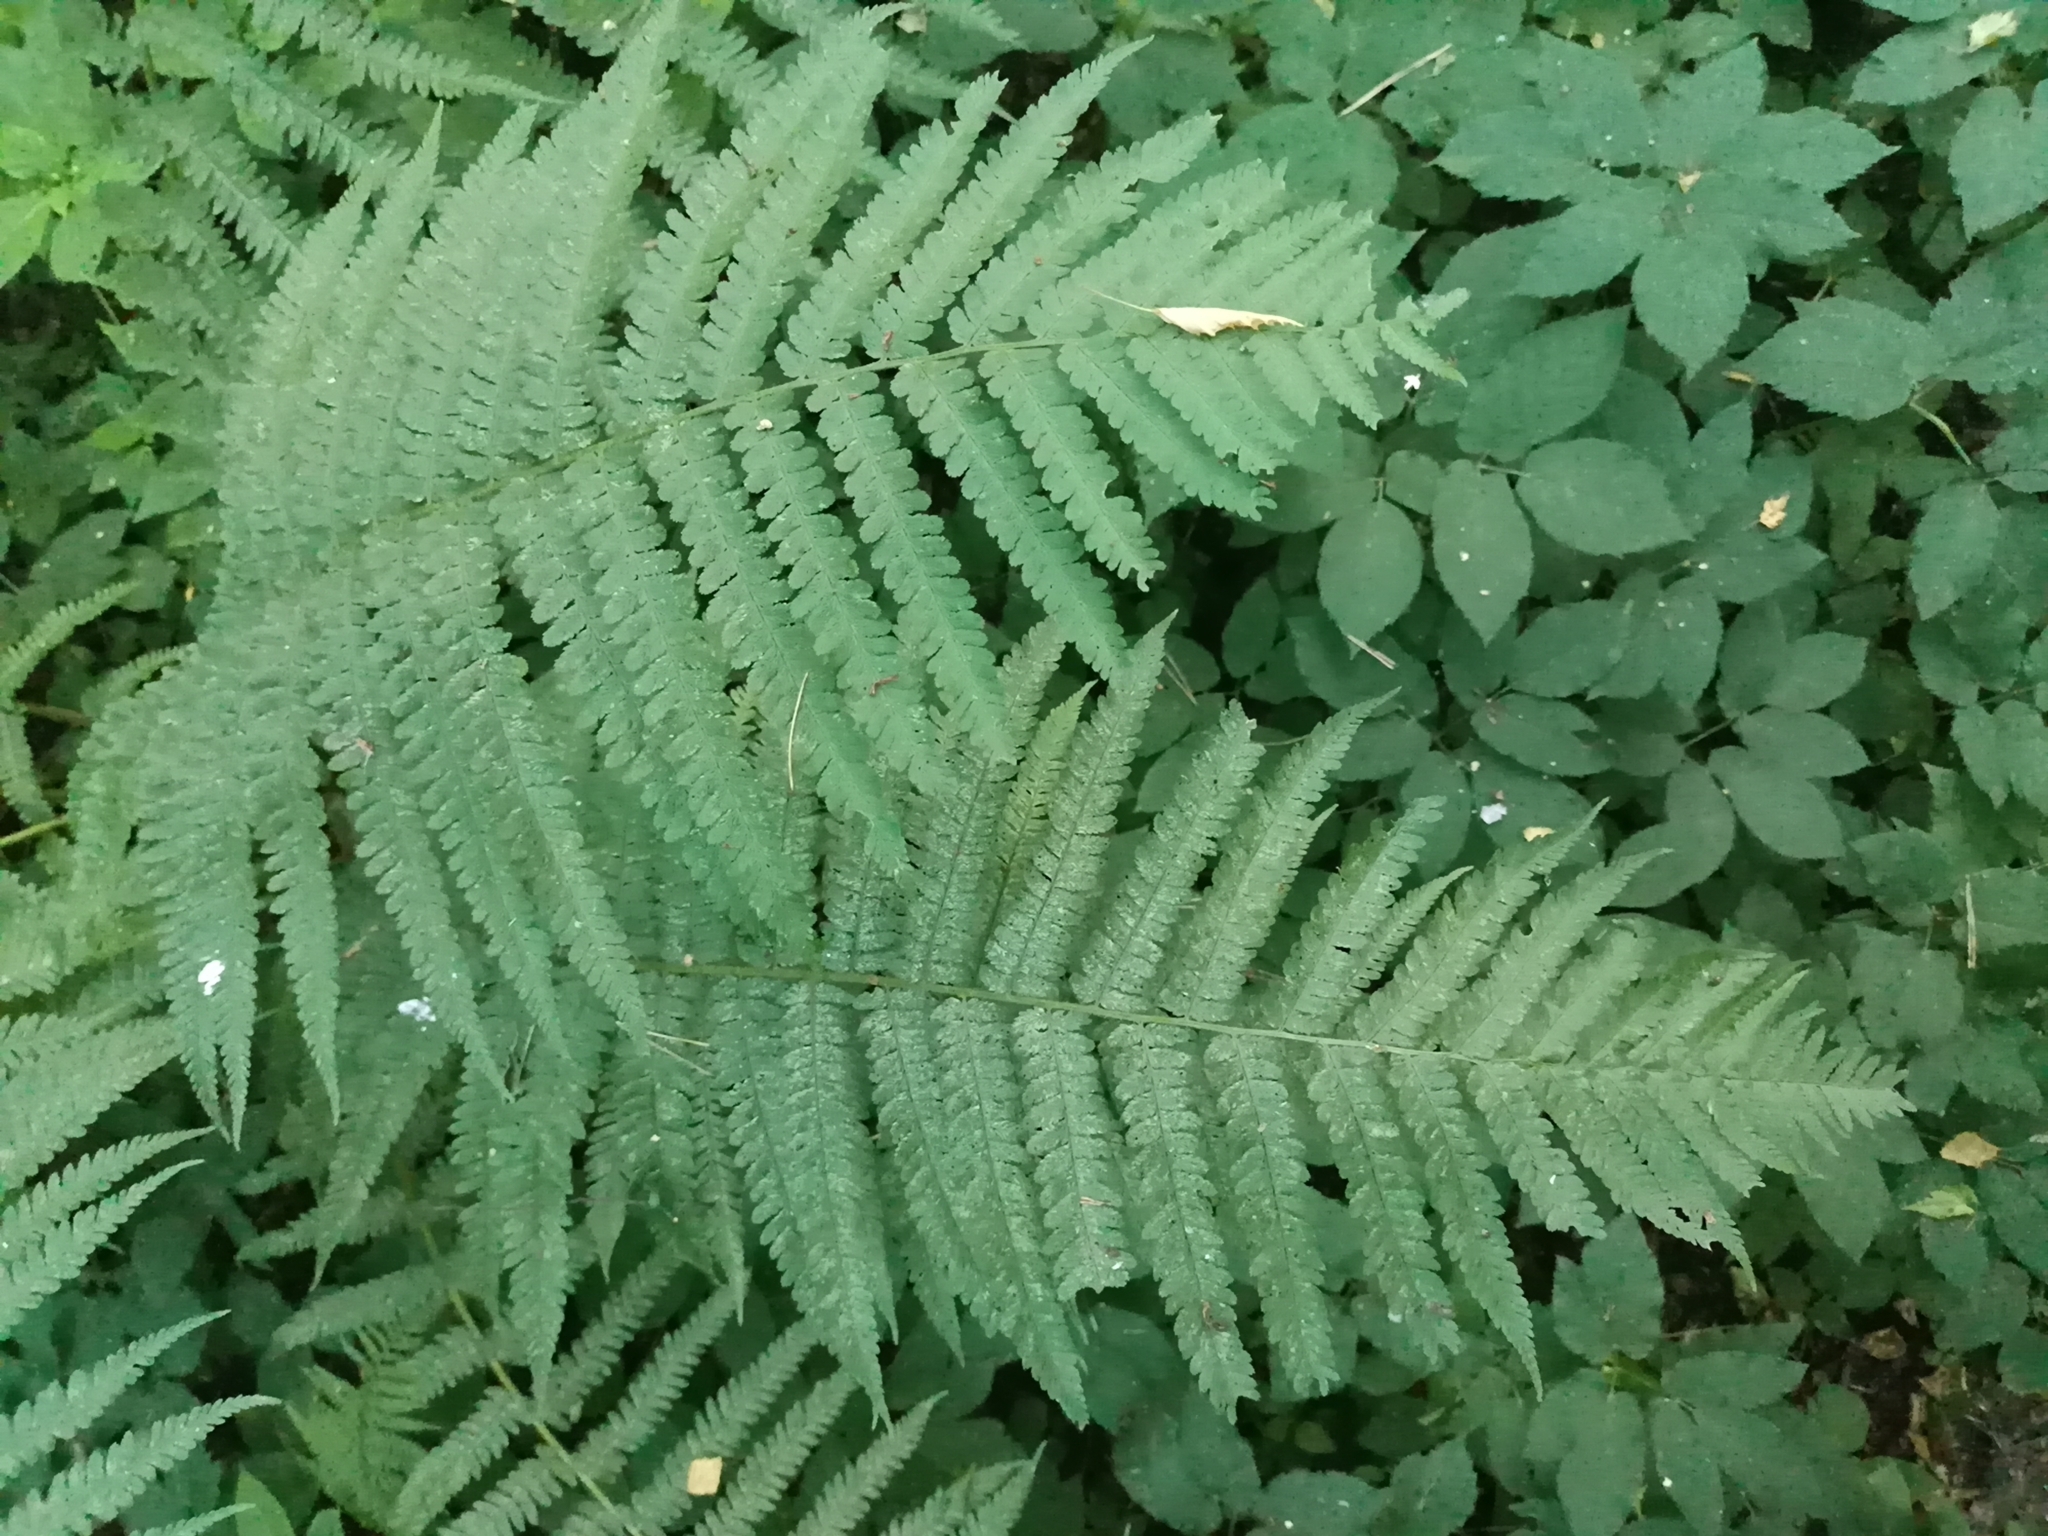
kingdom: Plantae
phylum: Tracheophyta
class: Polypodiopsida
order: Polypodiales
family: Dryopteridaceae
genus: Dryopteris
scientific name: Dryopteris filix-mas
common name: Male fern
